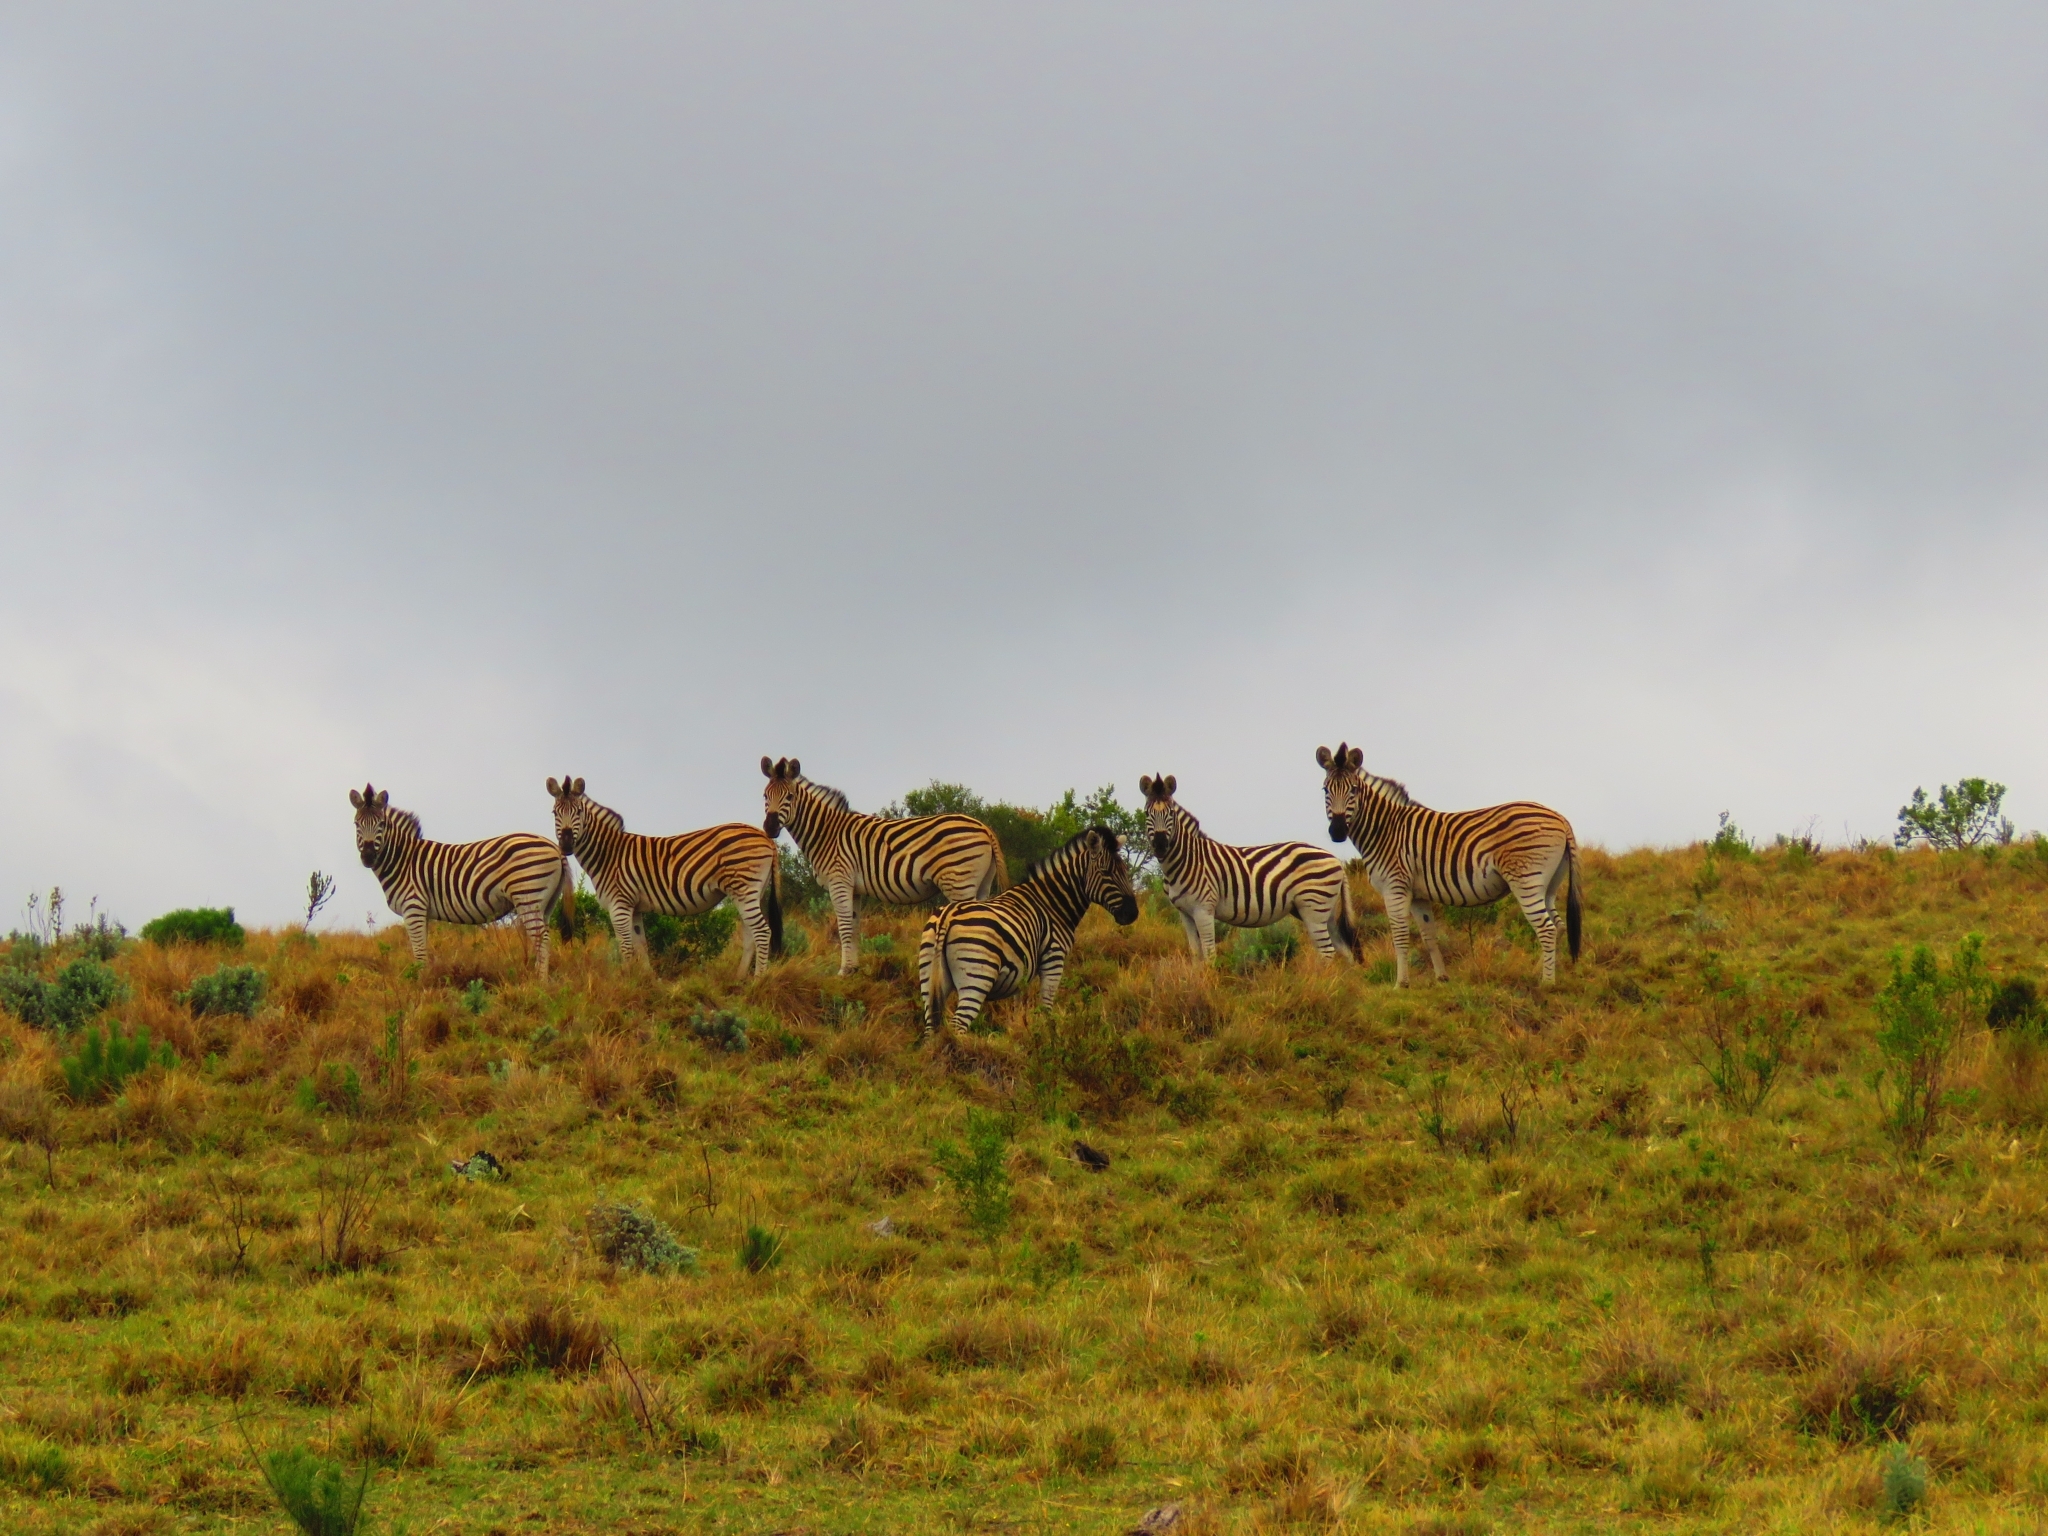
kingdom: Animalia
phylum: Chordata
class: Mammalia
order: Perissodactyla
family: Equidae
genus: Equus
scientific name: Equus quagga
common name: Plains zebra
